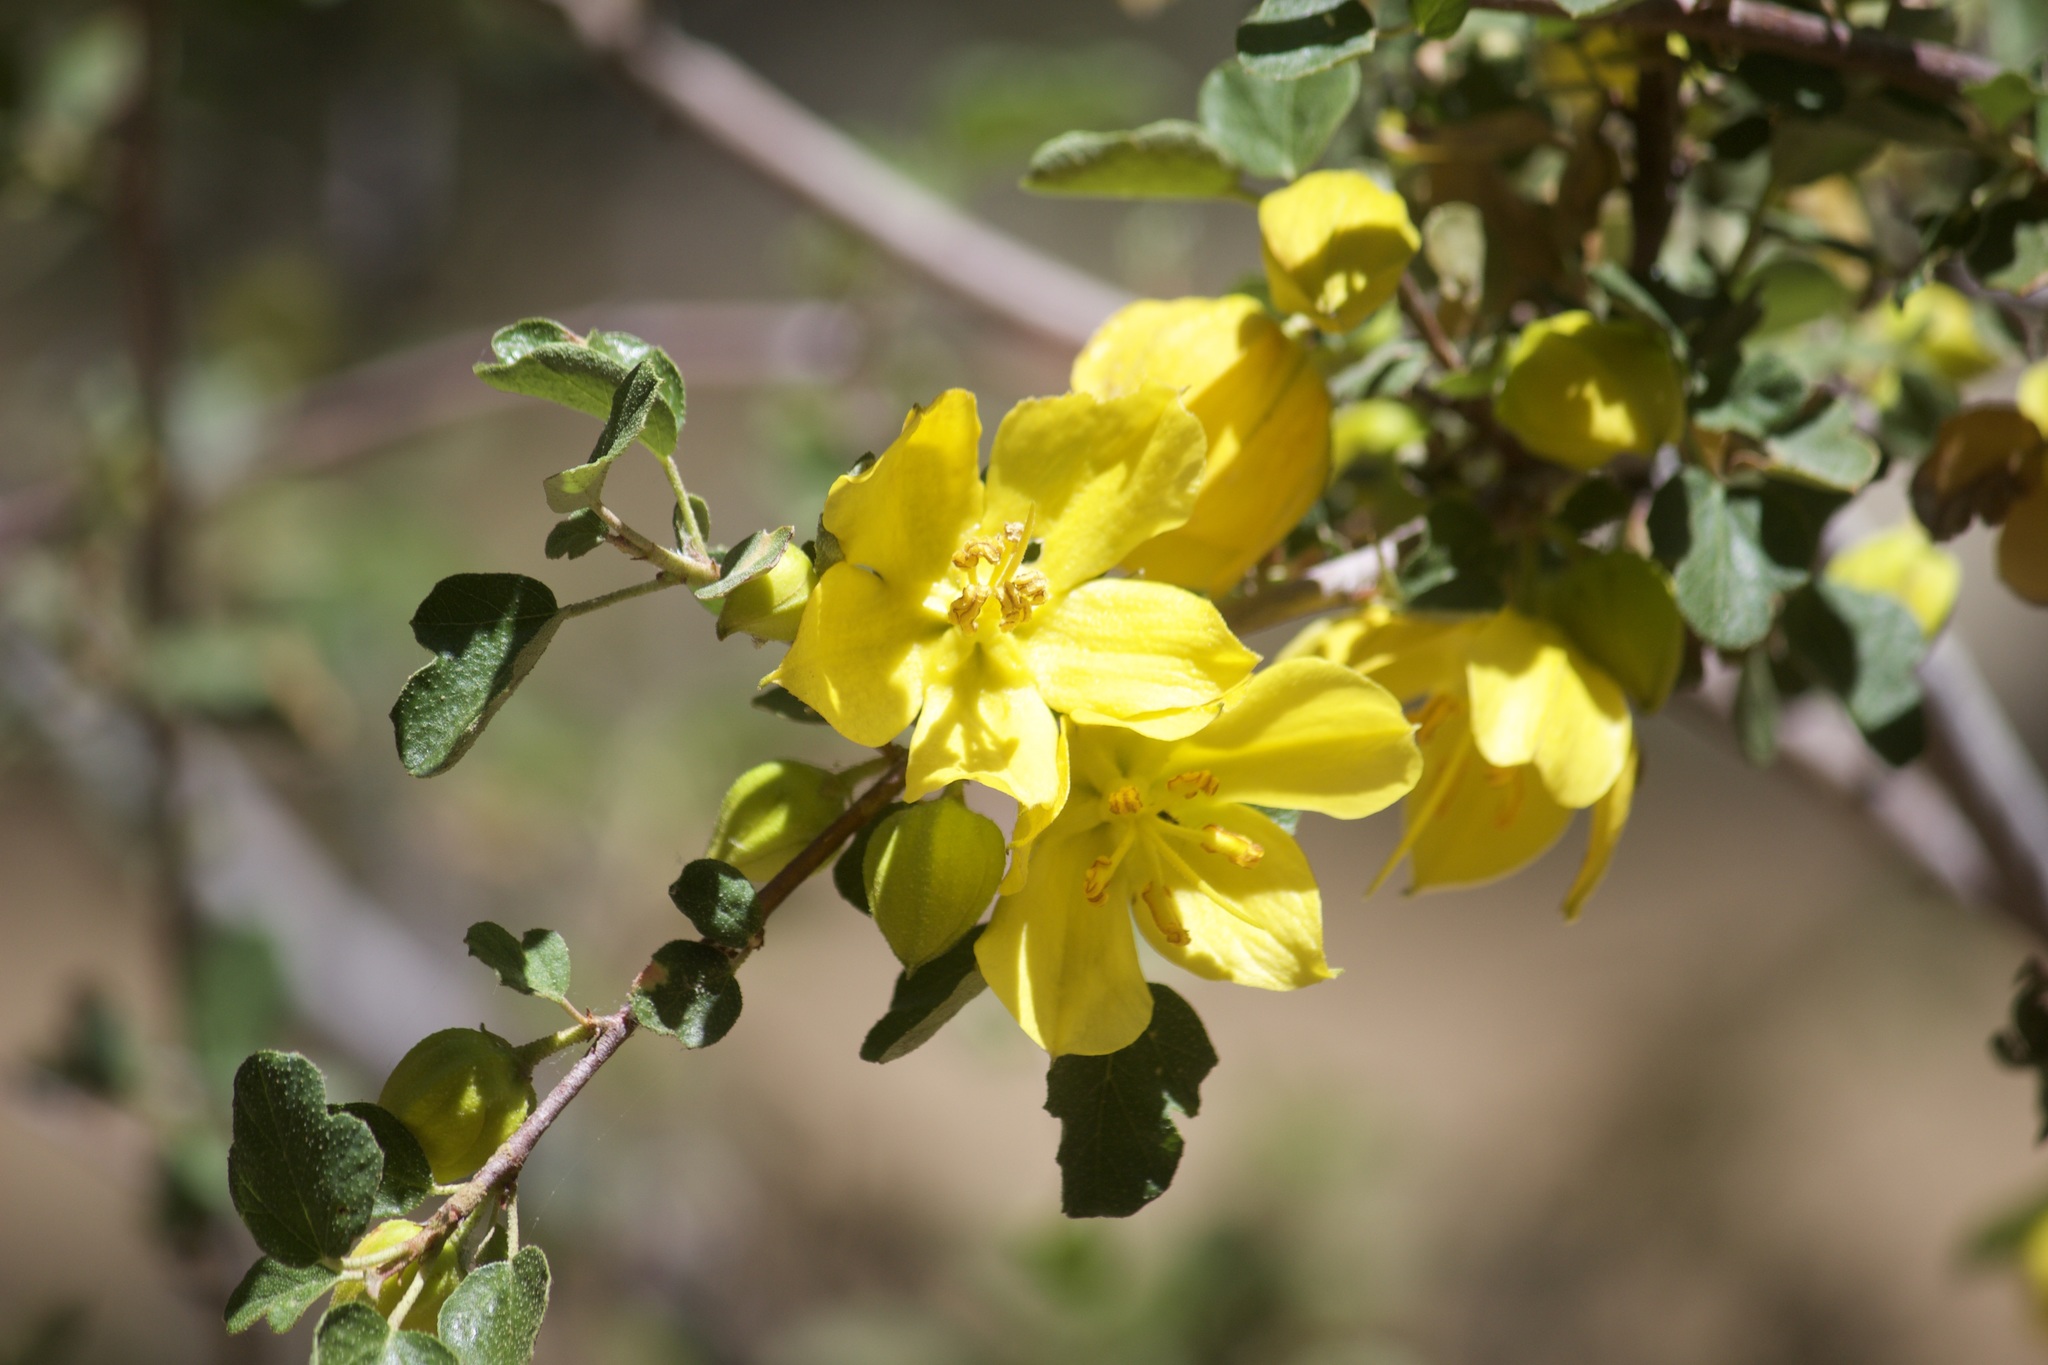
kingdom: Plantae
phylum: Tracheophyta
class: Magnoliopsida
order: Malvales
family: Malvaceae
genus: Fremontodendron
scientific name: Fremontodendron californicum
